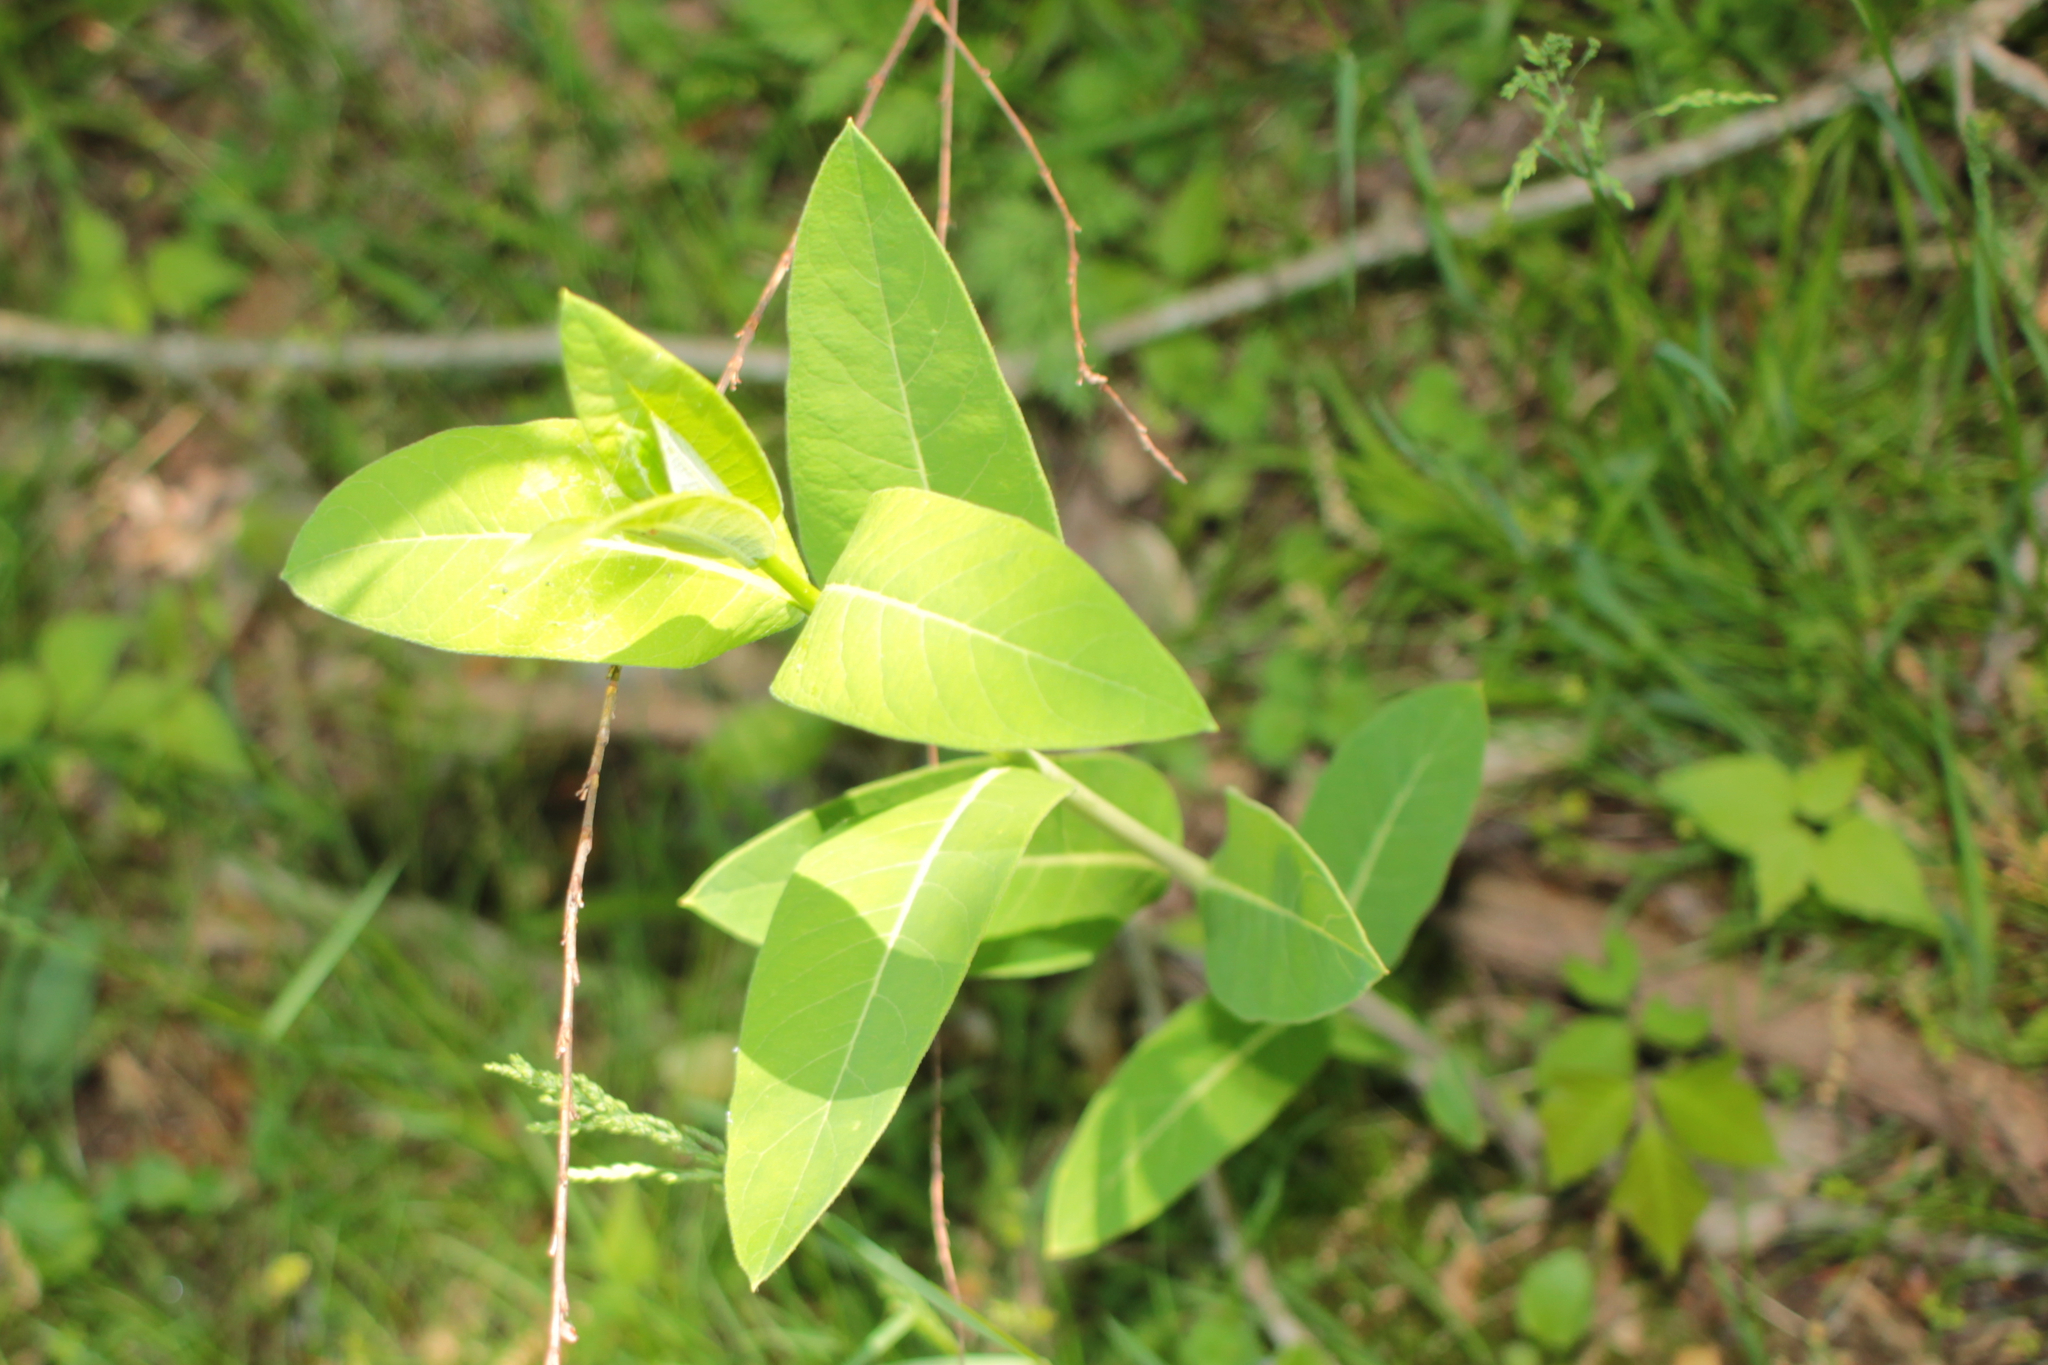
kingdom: Plantae
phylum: Tracheophyta
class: Magnoliopsida
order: Gentianales
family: Apocynaceae
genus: Apocynum
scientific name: Apocynum cannabinum
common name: Hemp dogbane
